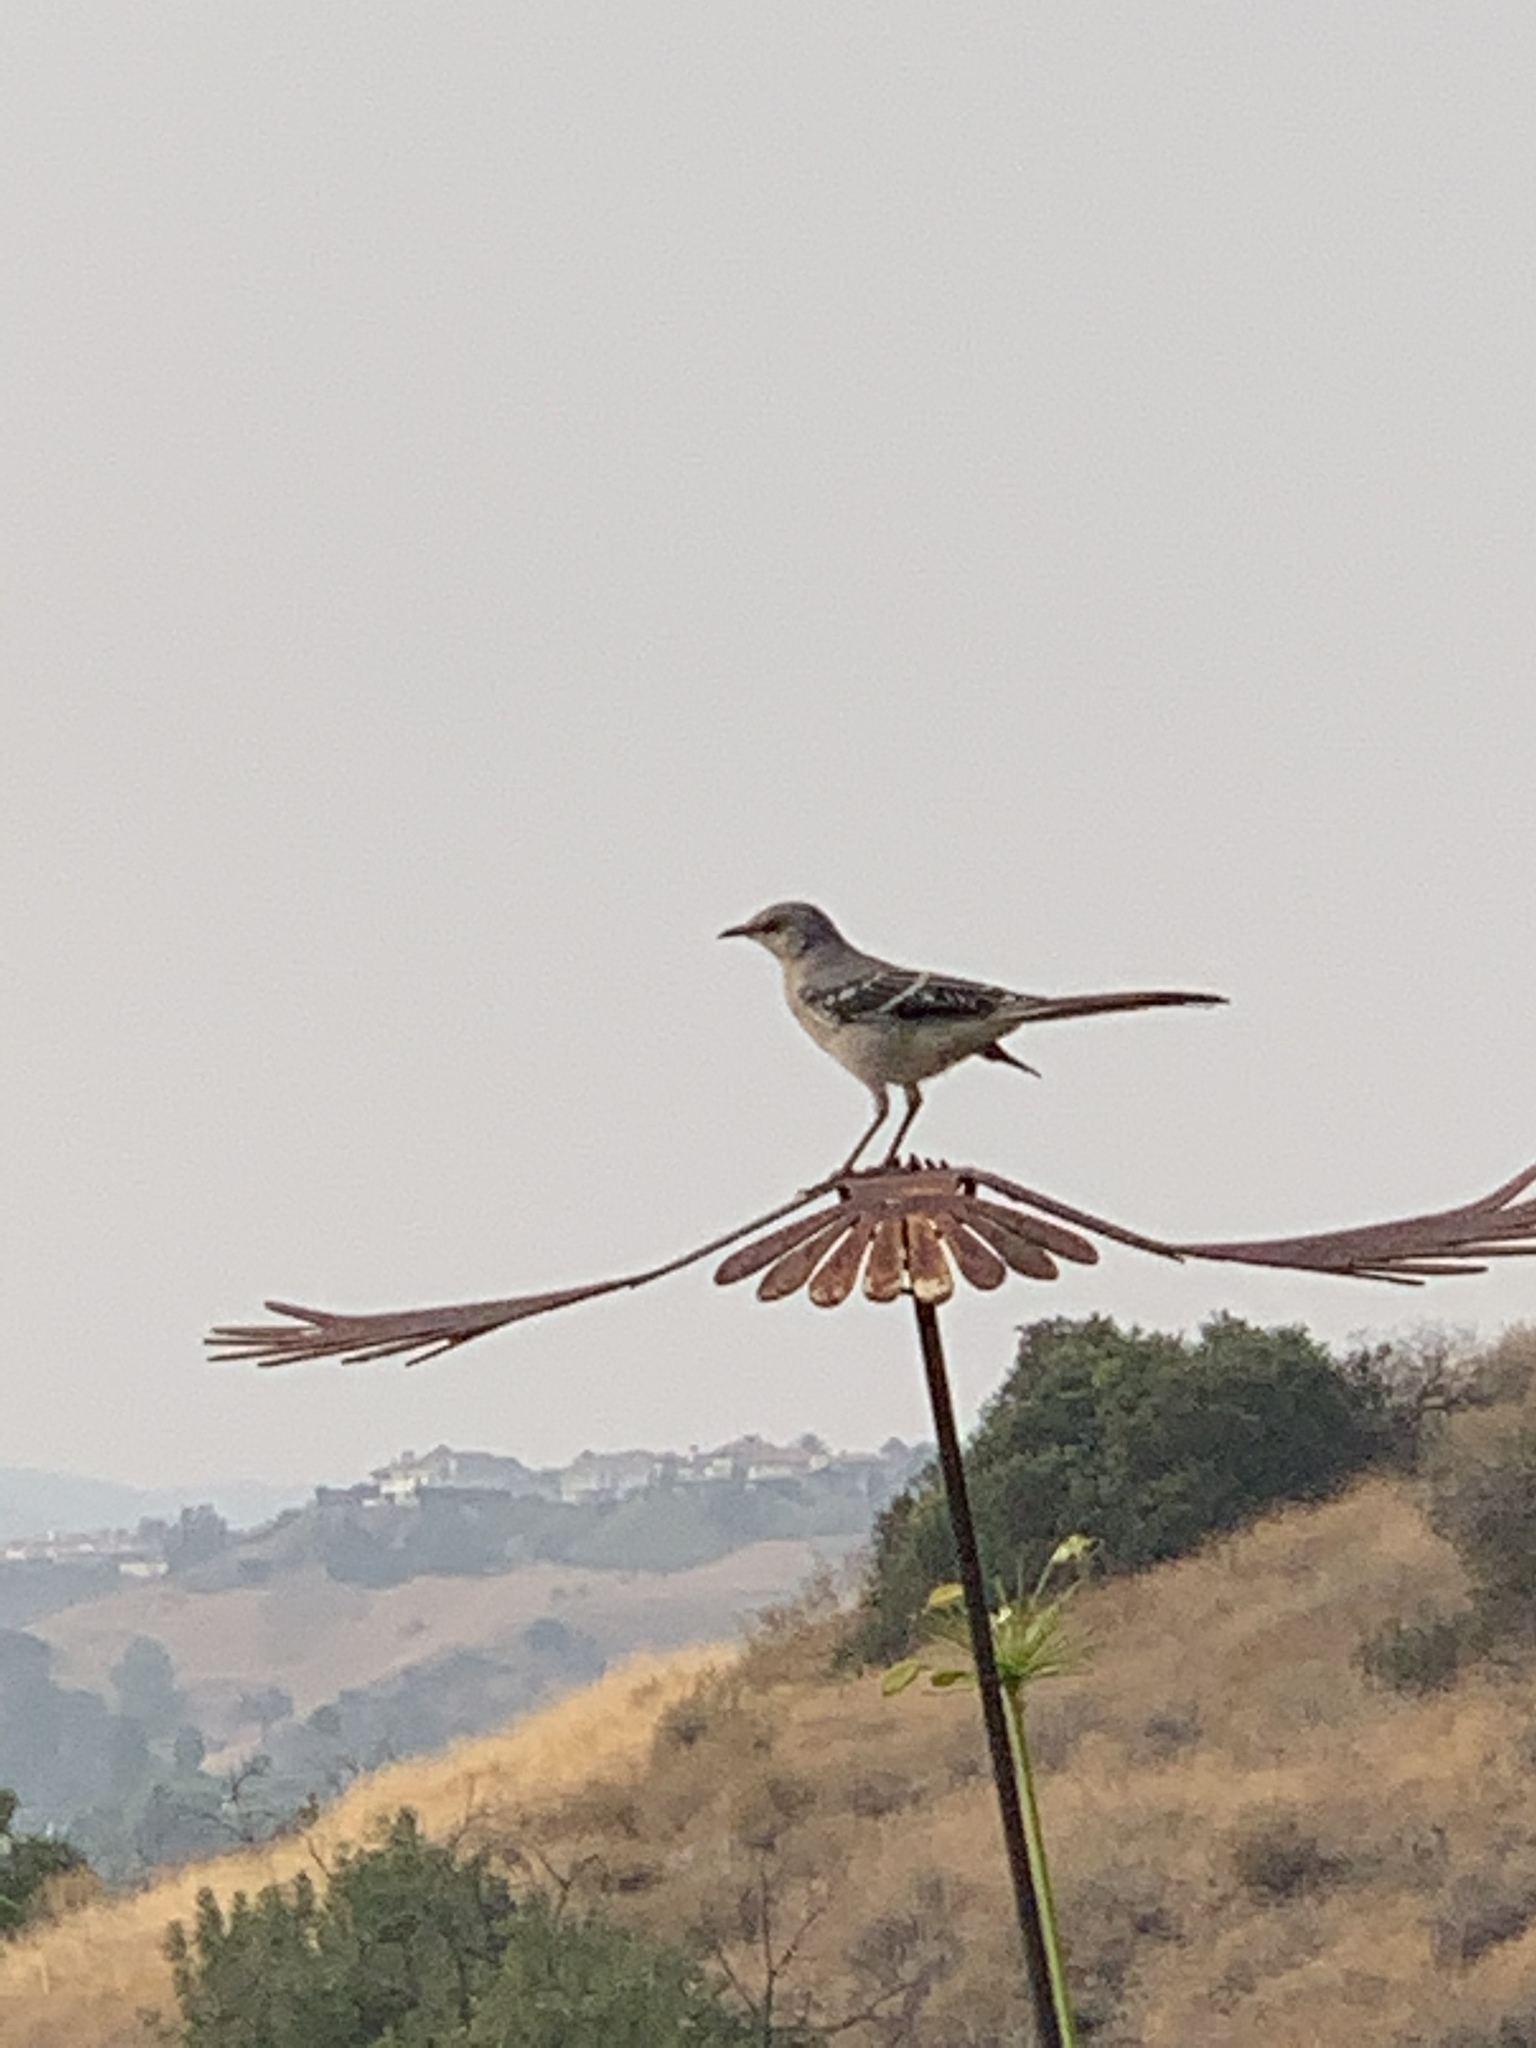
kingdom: Animalia
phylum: Chordata
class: Aves
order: Passeriformes
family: Mimidae
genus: Mimus
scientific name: Mimus polyglottos
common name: Northern mockingbird
